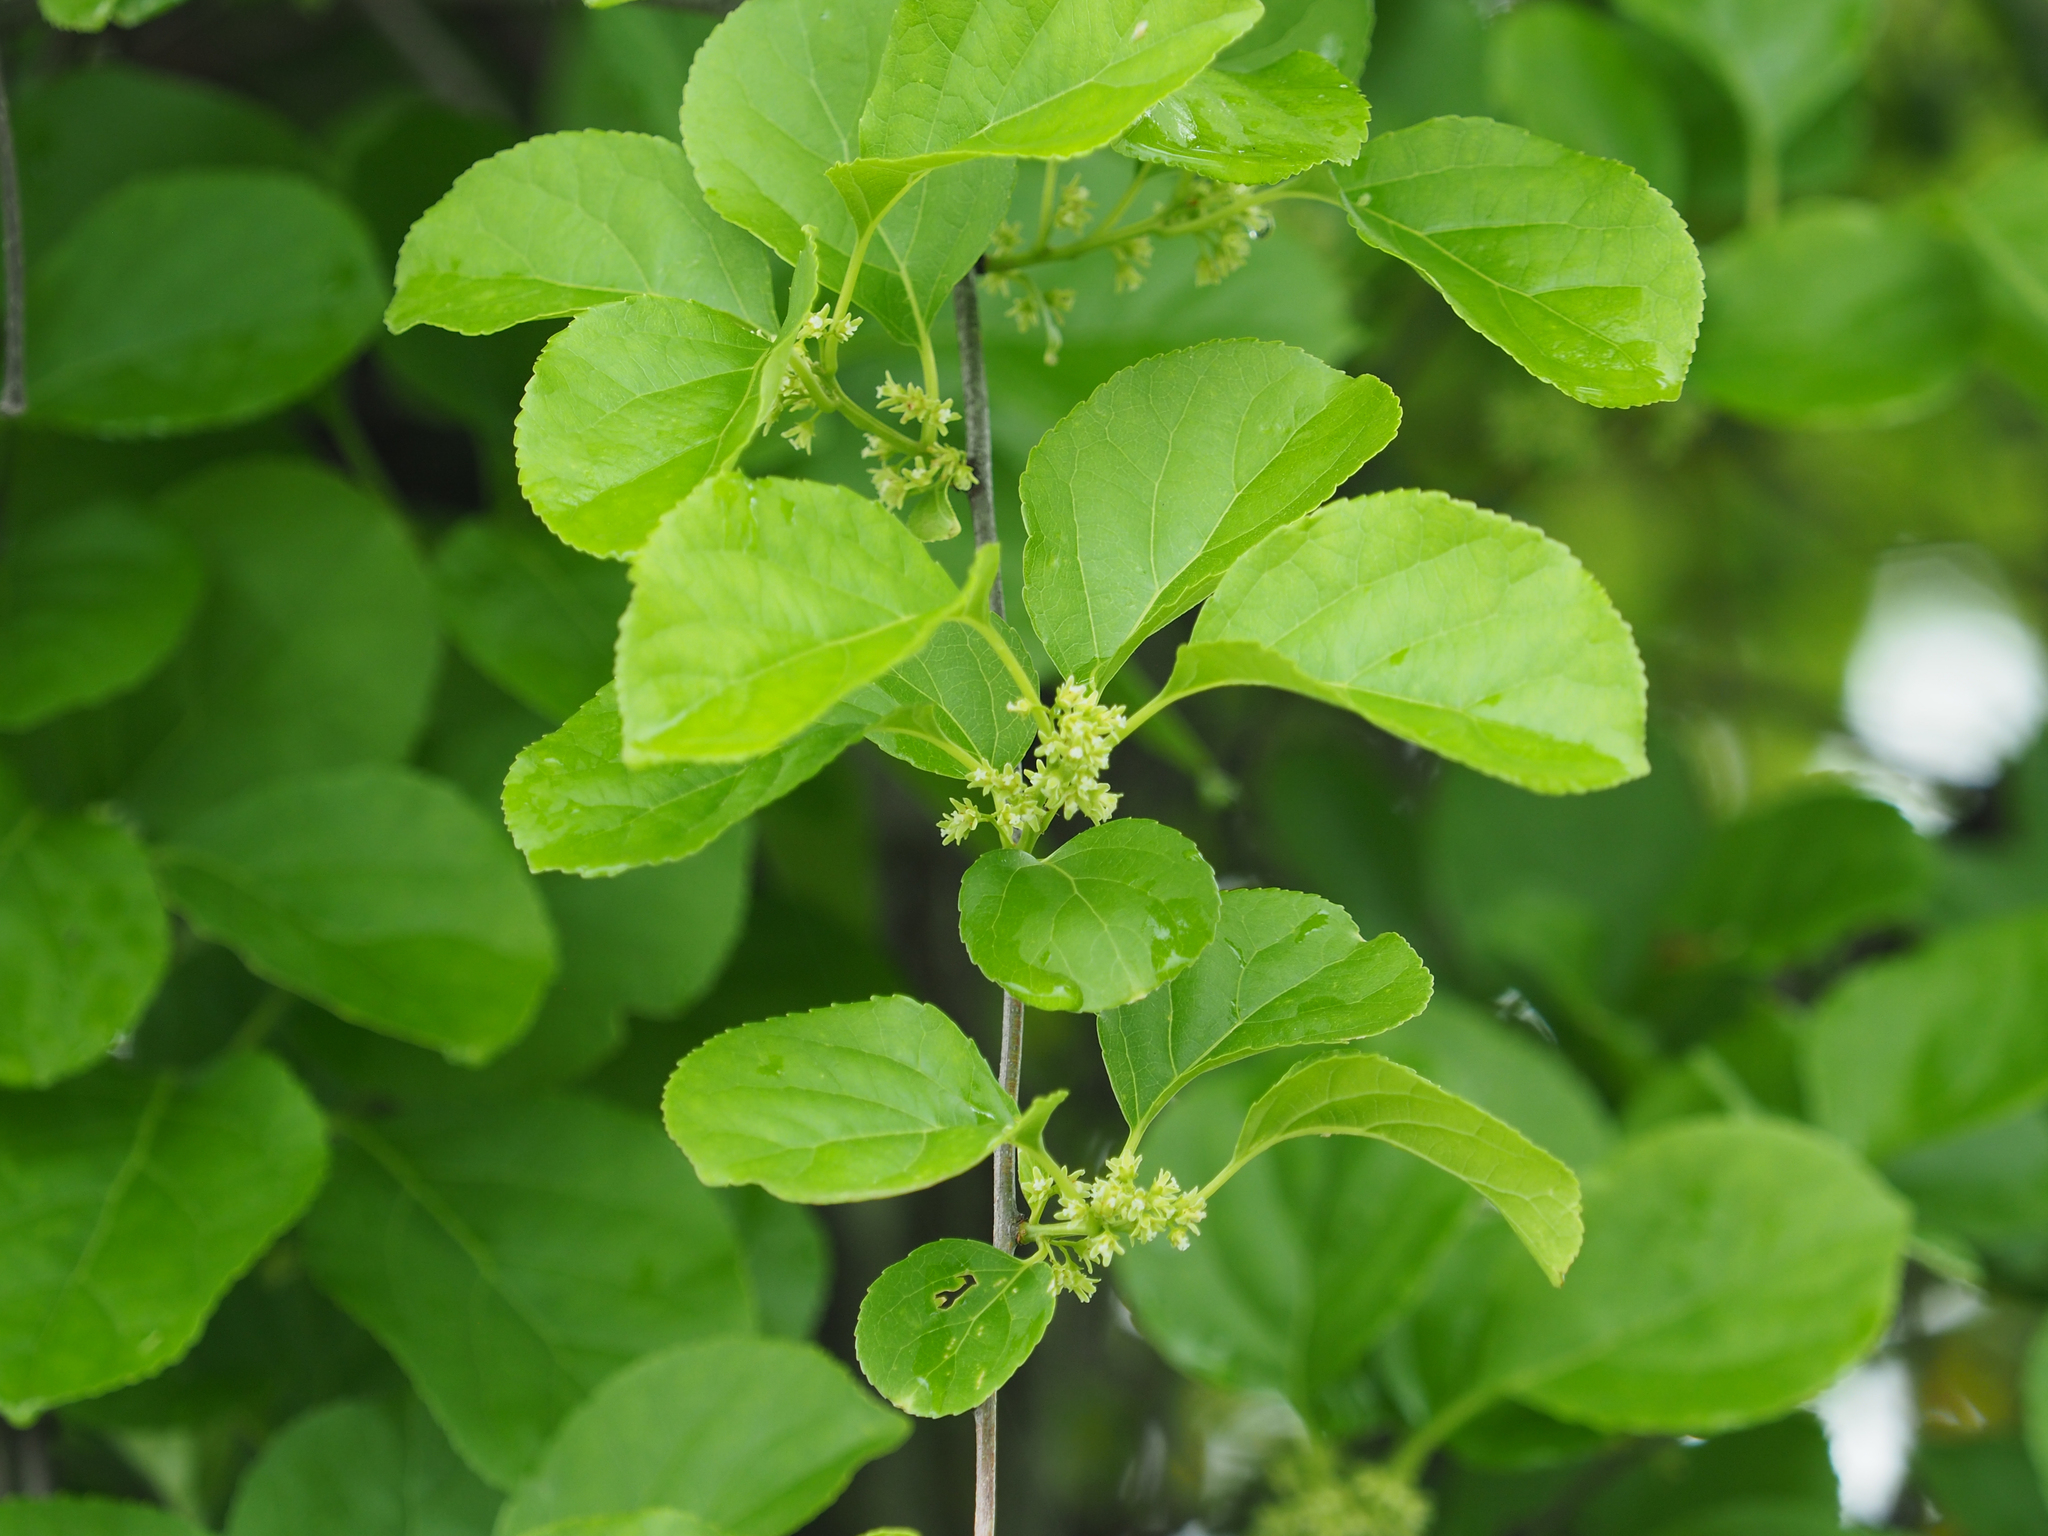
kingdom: Plantae
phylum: Tracheophyta
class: Magnoliopsida
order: Celastrales
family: Celastraceae
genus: Celastrus
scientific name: Celastrus orbiculatus
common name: Oriental bittersweet
